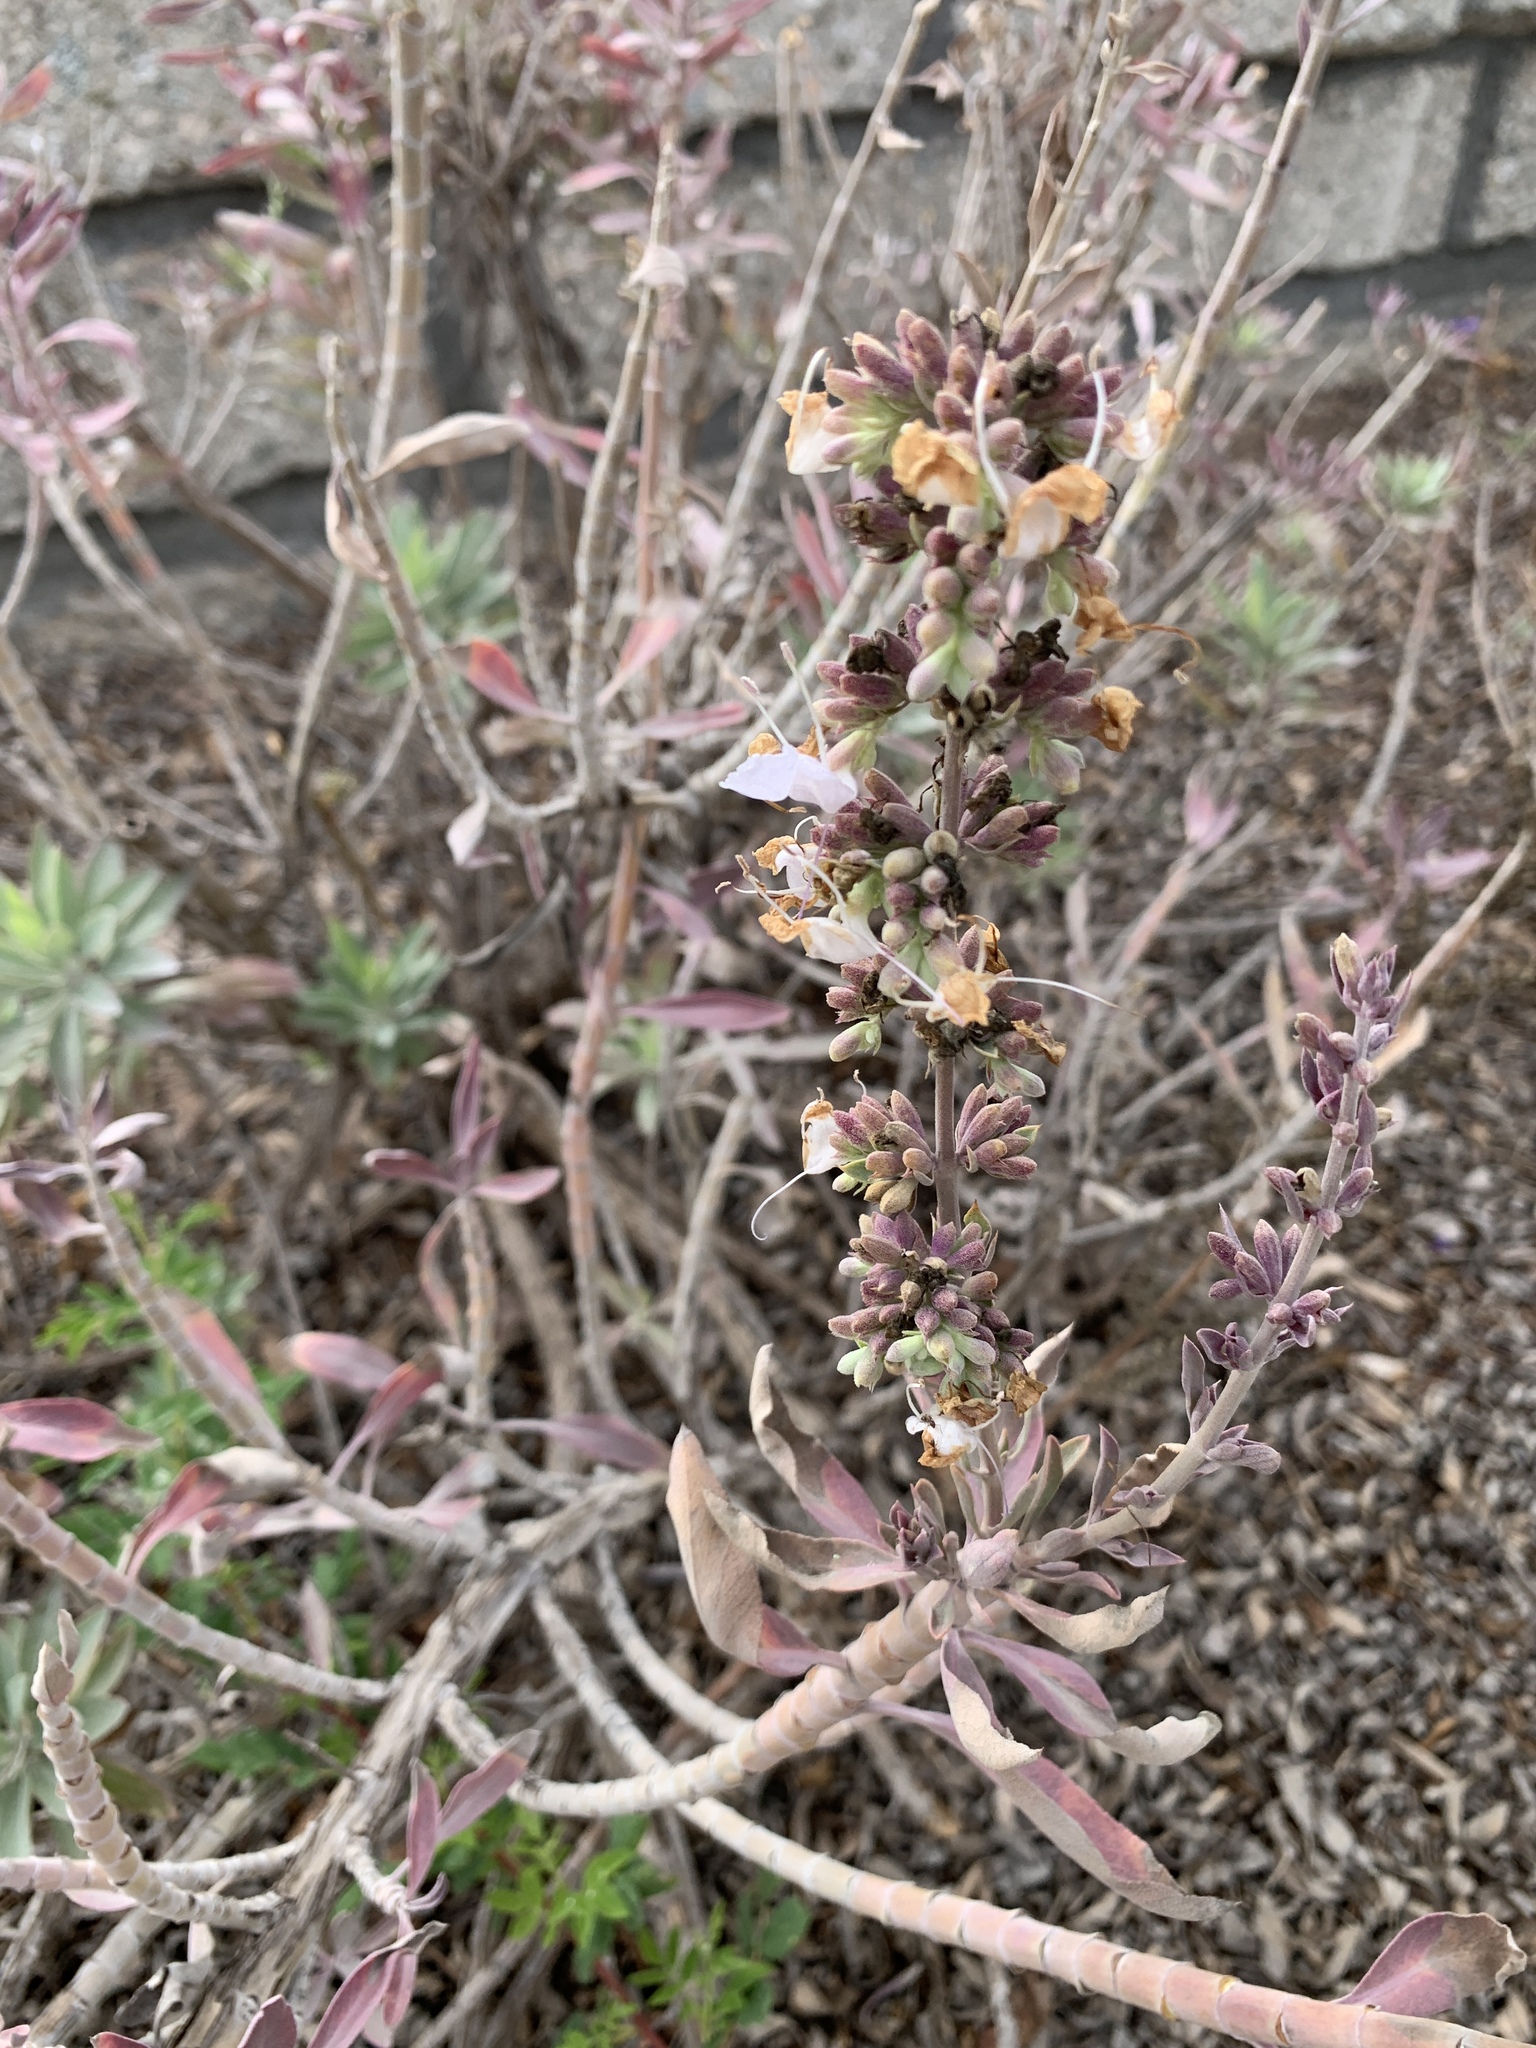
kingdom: Plantae
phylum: Tracheophyta
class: Magnoliopsida
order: Lamiales
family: Lamiaceae
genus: Salvia
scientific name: Salvia apiana
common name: White sage
